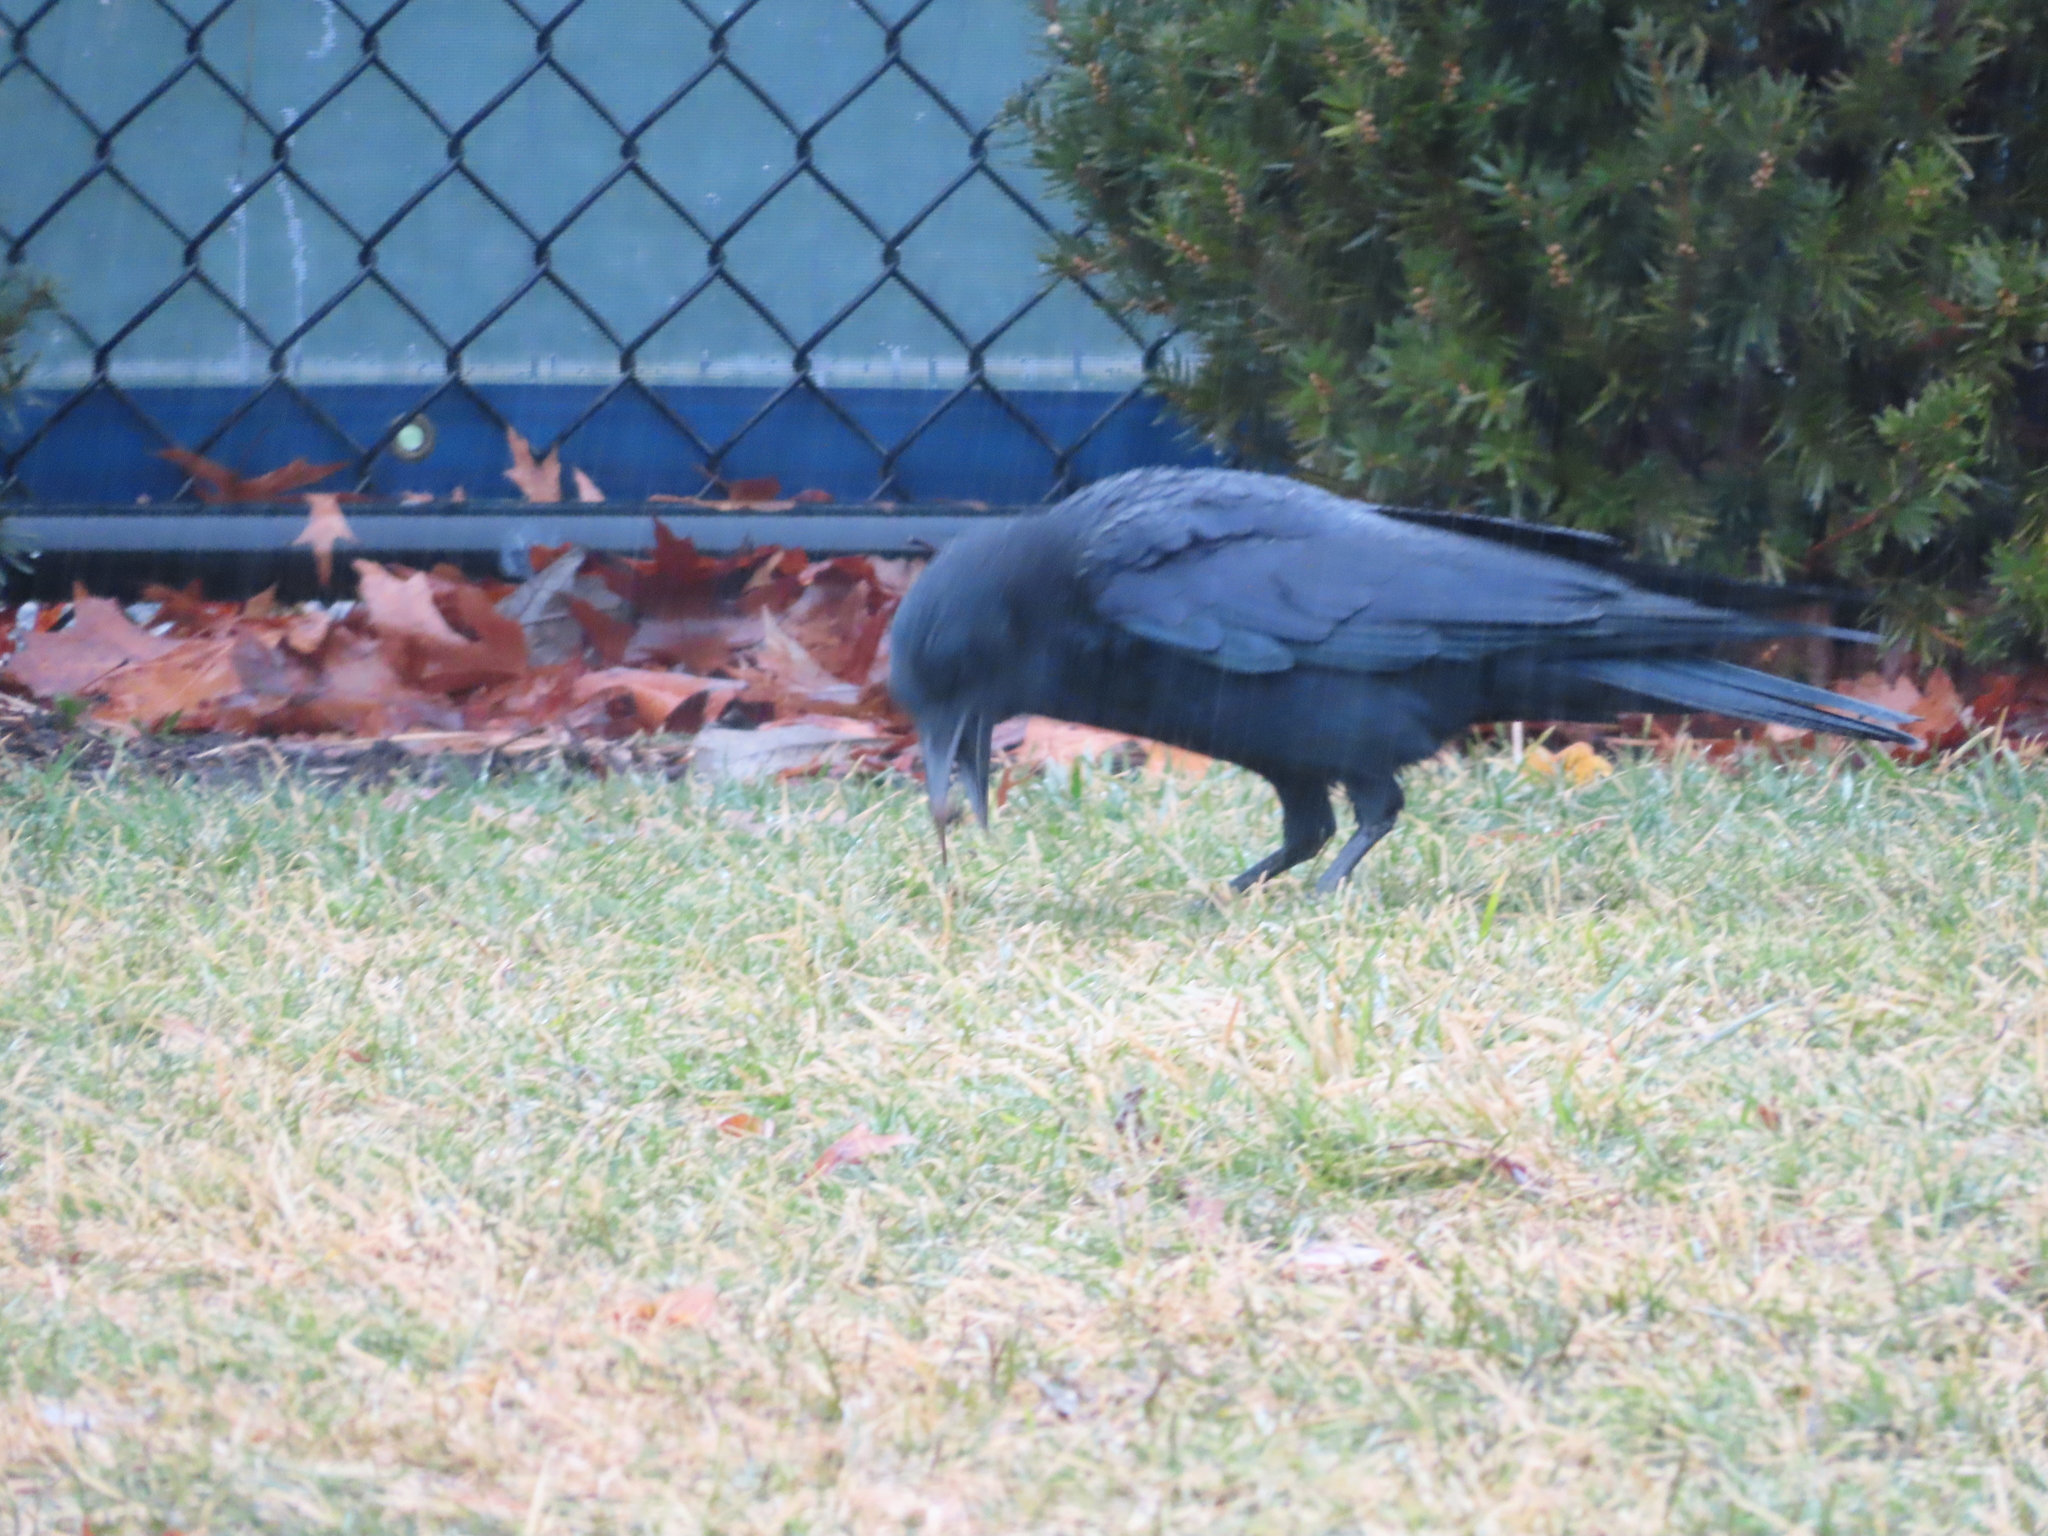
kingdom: Animalia
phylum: Chordata
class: Aves
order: Passeriformes
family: Corvidae
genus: Corvus
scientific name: Corvus brachyrhynchos
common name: American crow
